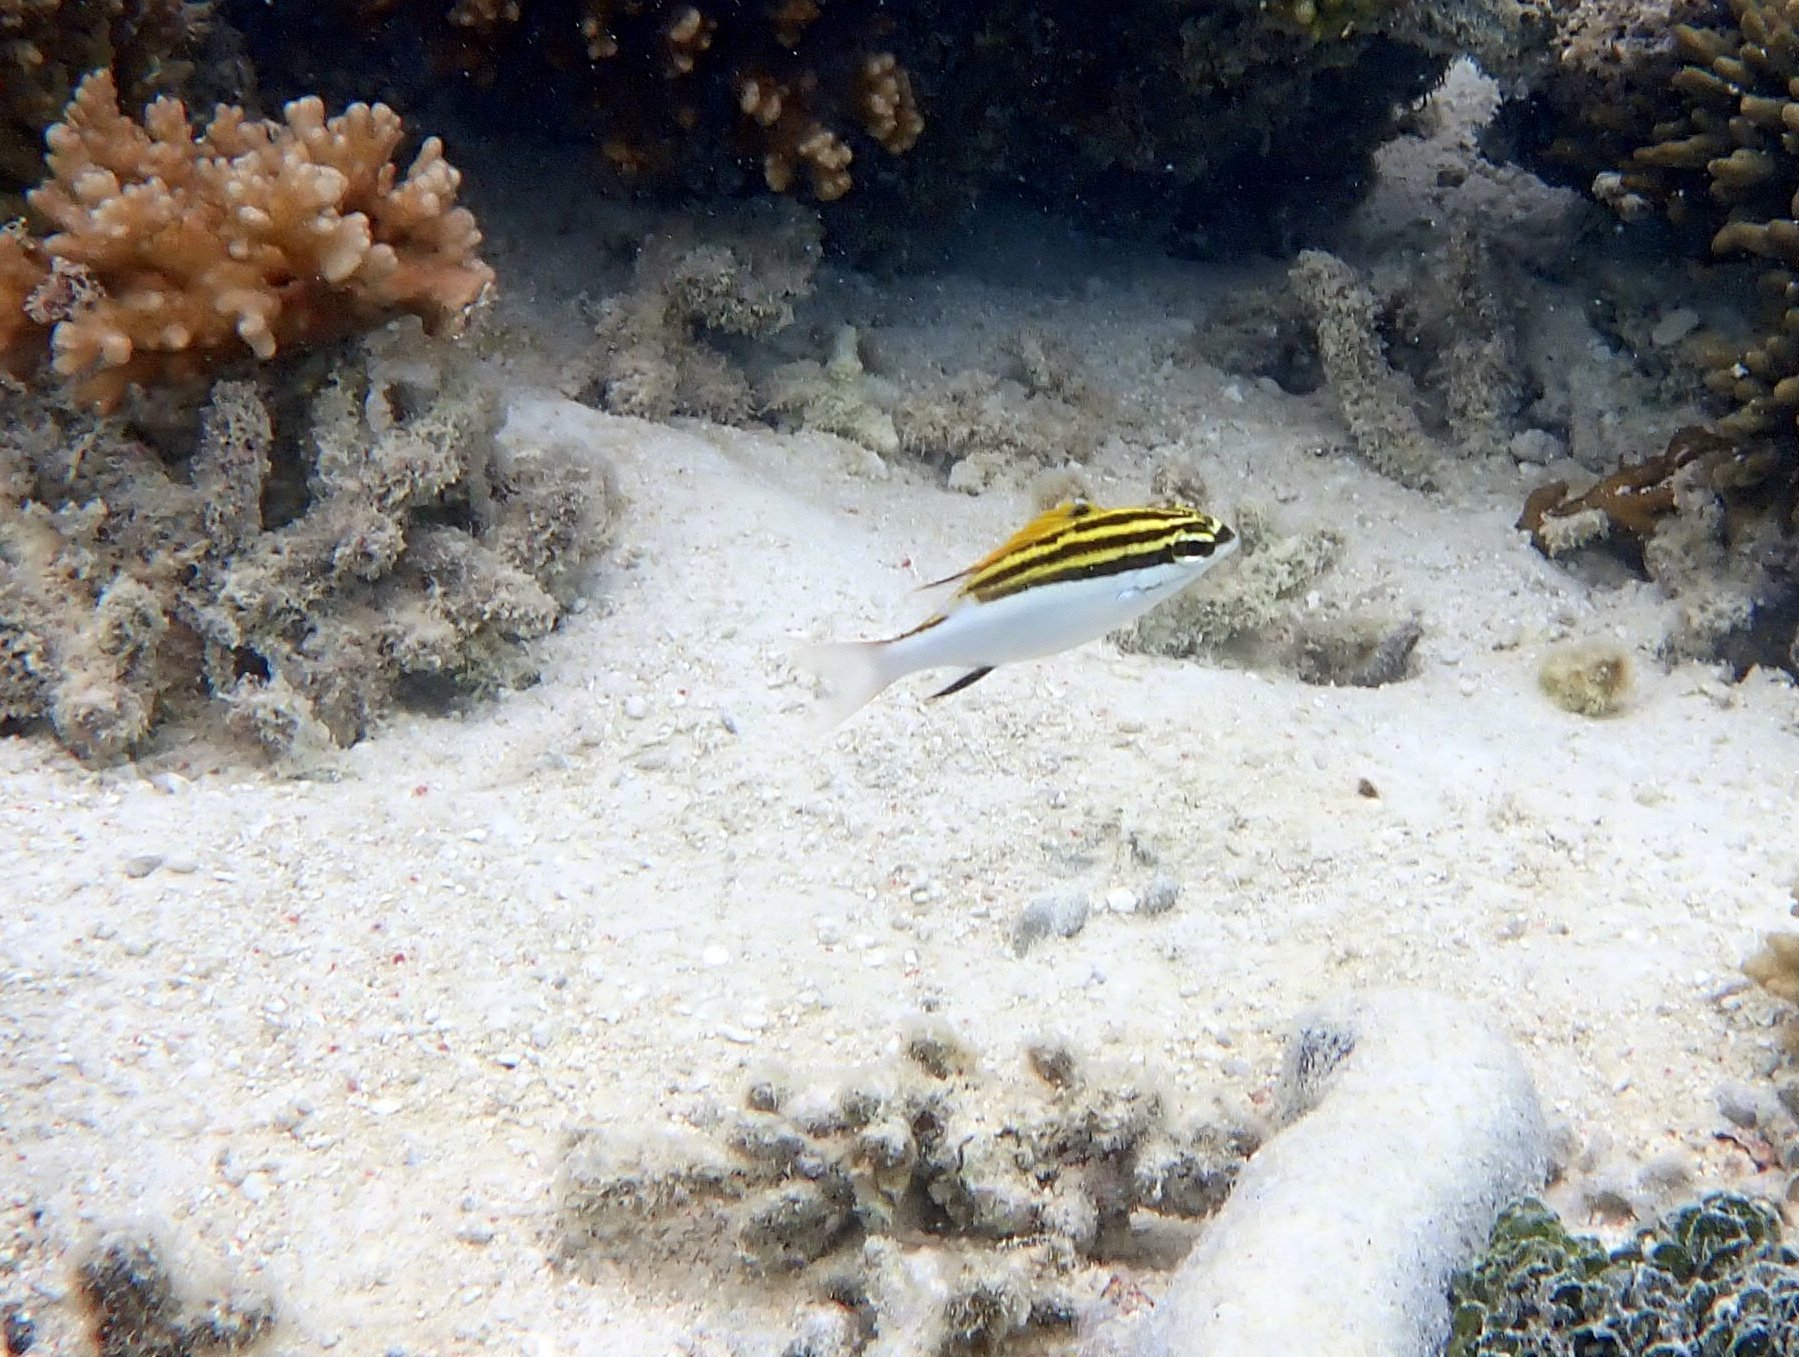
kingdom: Animalia
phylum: Chordata
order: Perciformes
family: Nemipteridae
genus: Scolopsis
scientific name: Scolopsis bilineata
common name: Two-lined monocle bream
